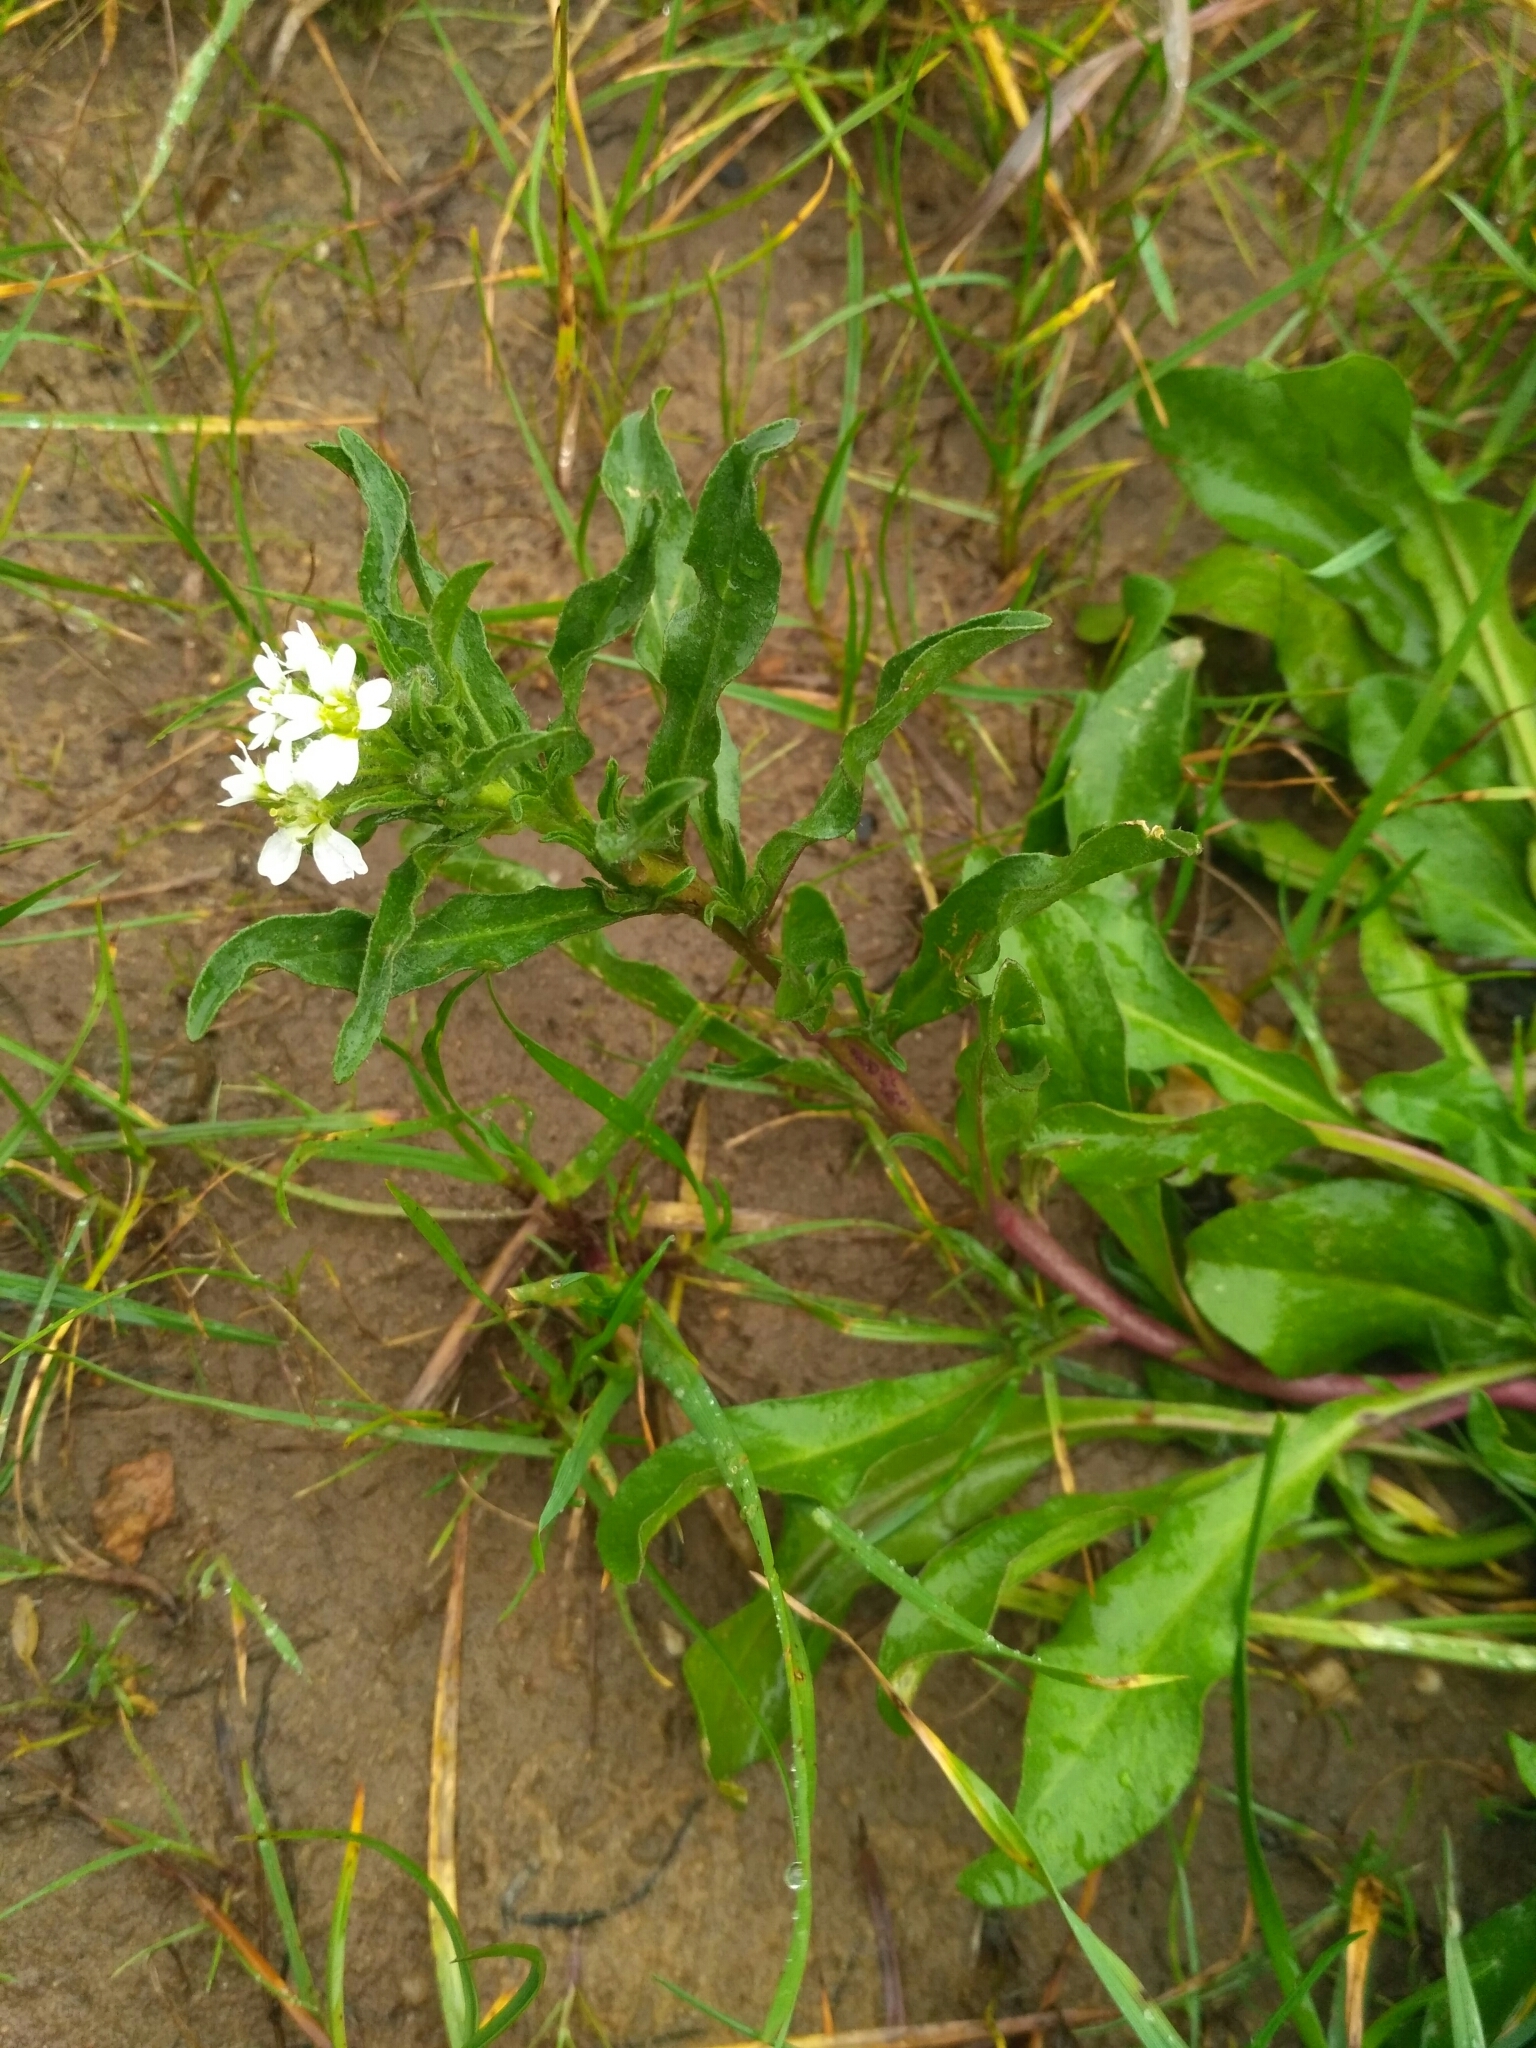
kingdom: Plantae
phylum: Tracheophyta
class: Magnoliopsida
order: Brassicales
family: Brassicaceae
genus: Berteroa
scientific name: Berteroa incana
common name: Hoary alison
